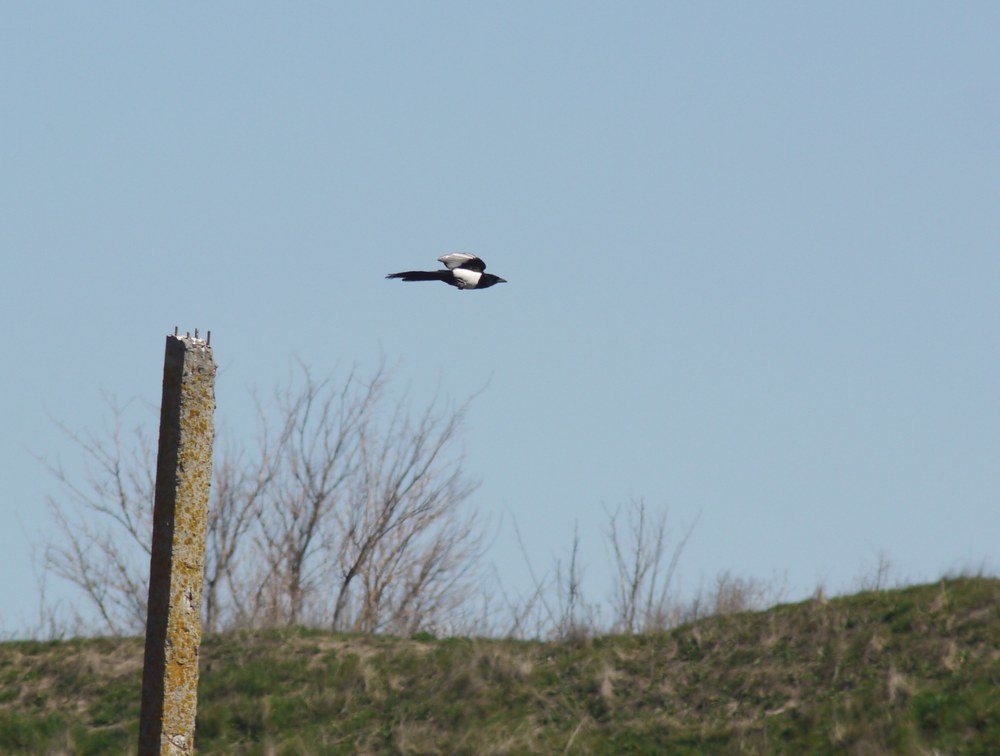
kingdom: Animalia
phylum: Chordata
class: Aves
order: Passeriformes
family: Corvidae
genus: Pica
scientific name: Pica pica
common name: Eurasian magpie
